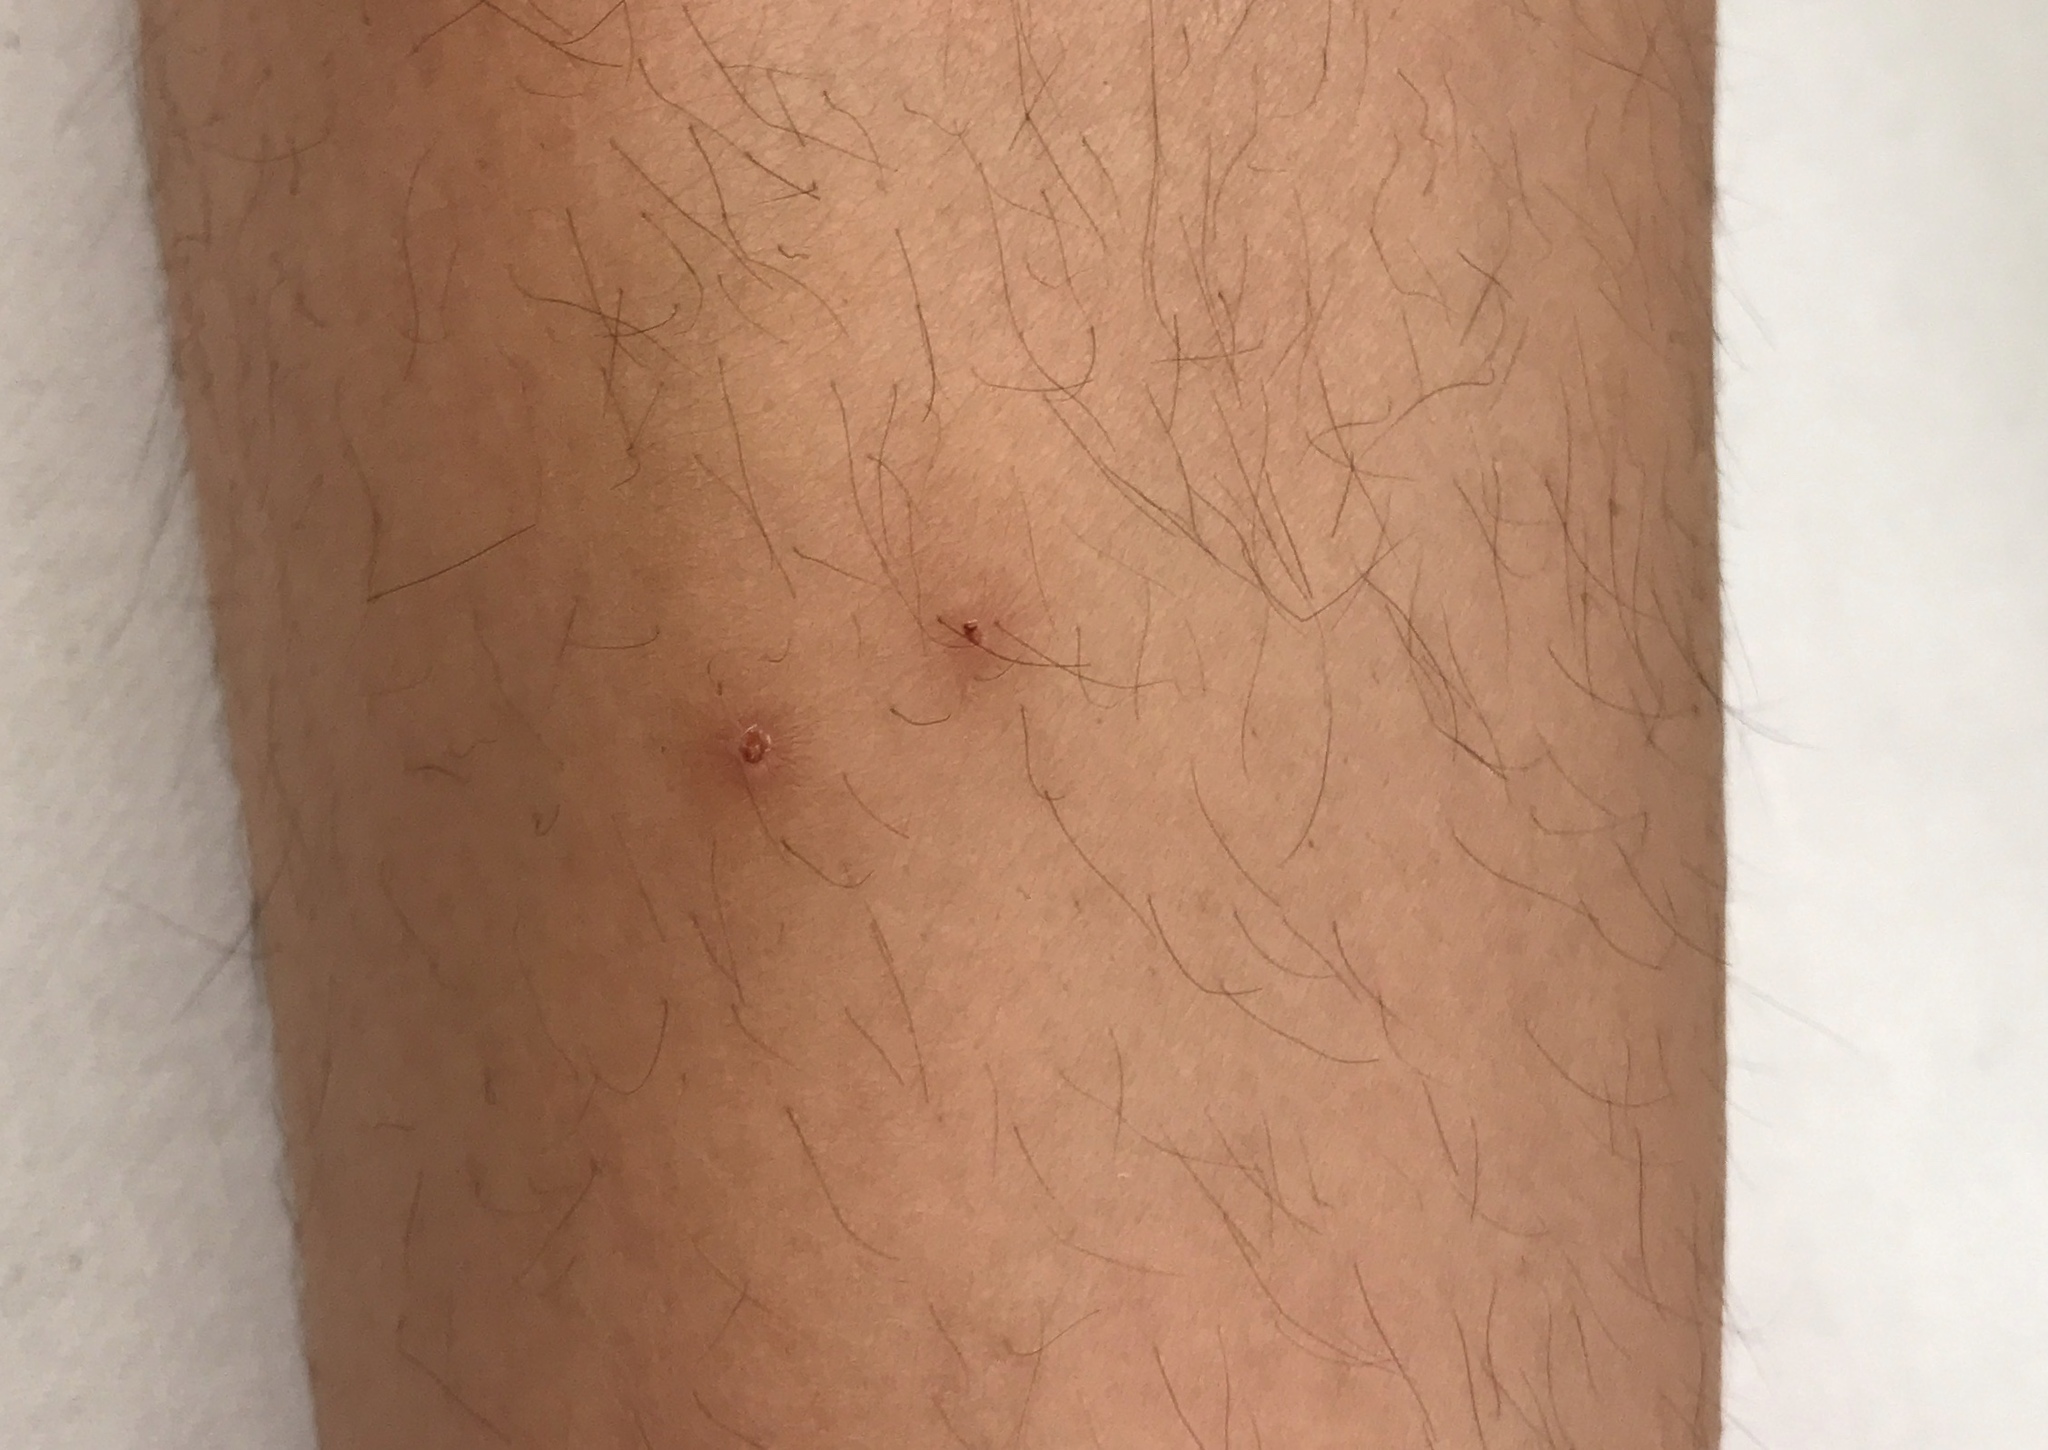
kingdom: Animalia
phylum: Chordata
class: Squamata
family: Viperidae
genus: Vipera
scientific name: Vipera berus
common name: Adder
